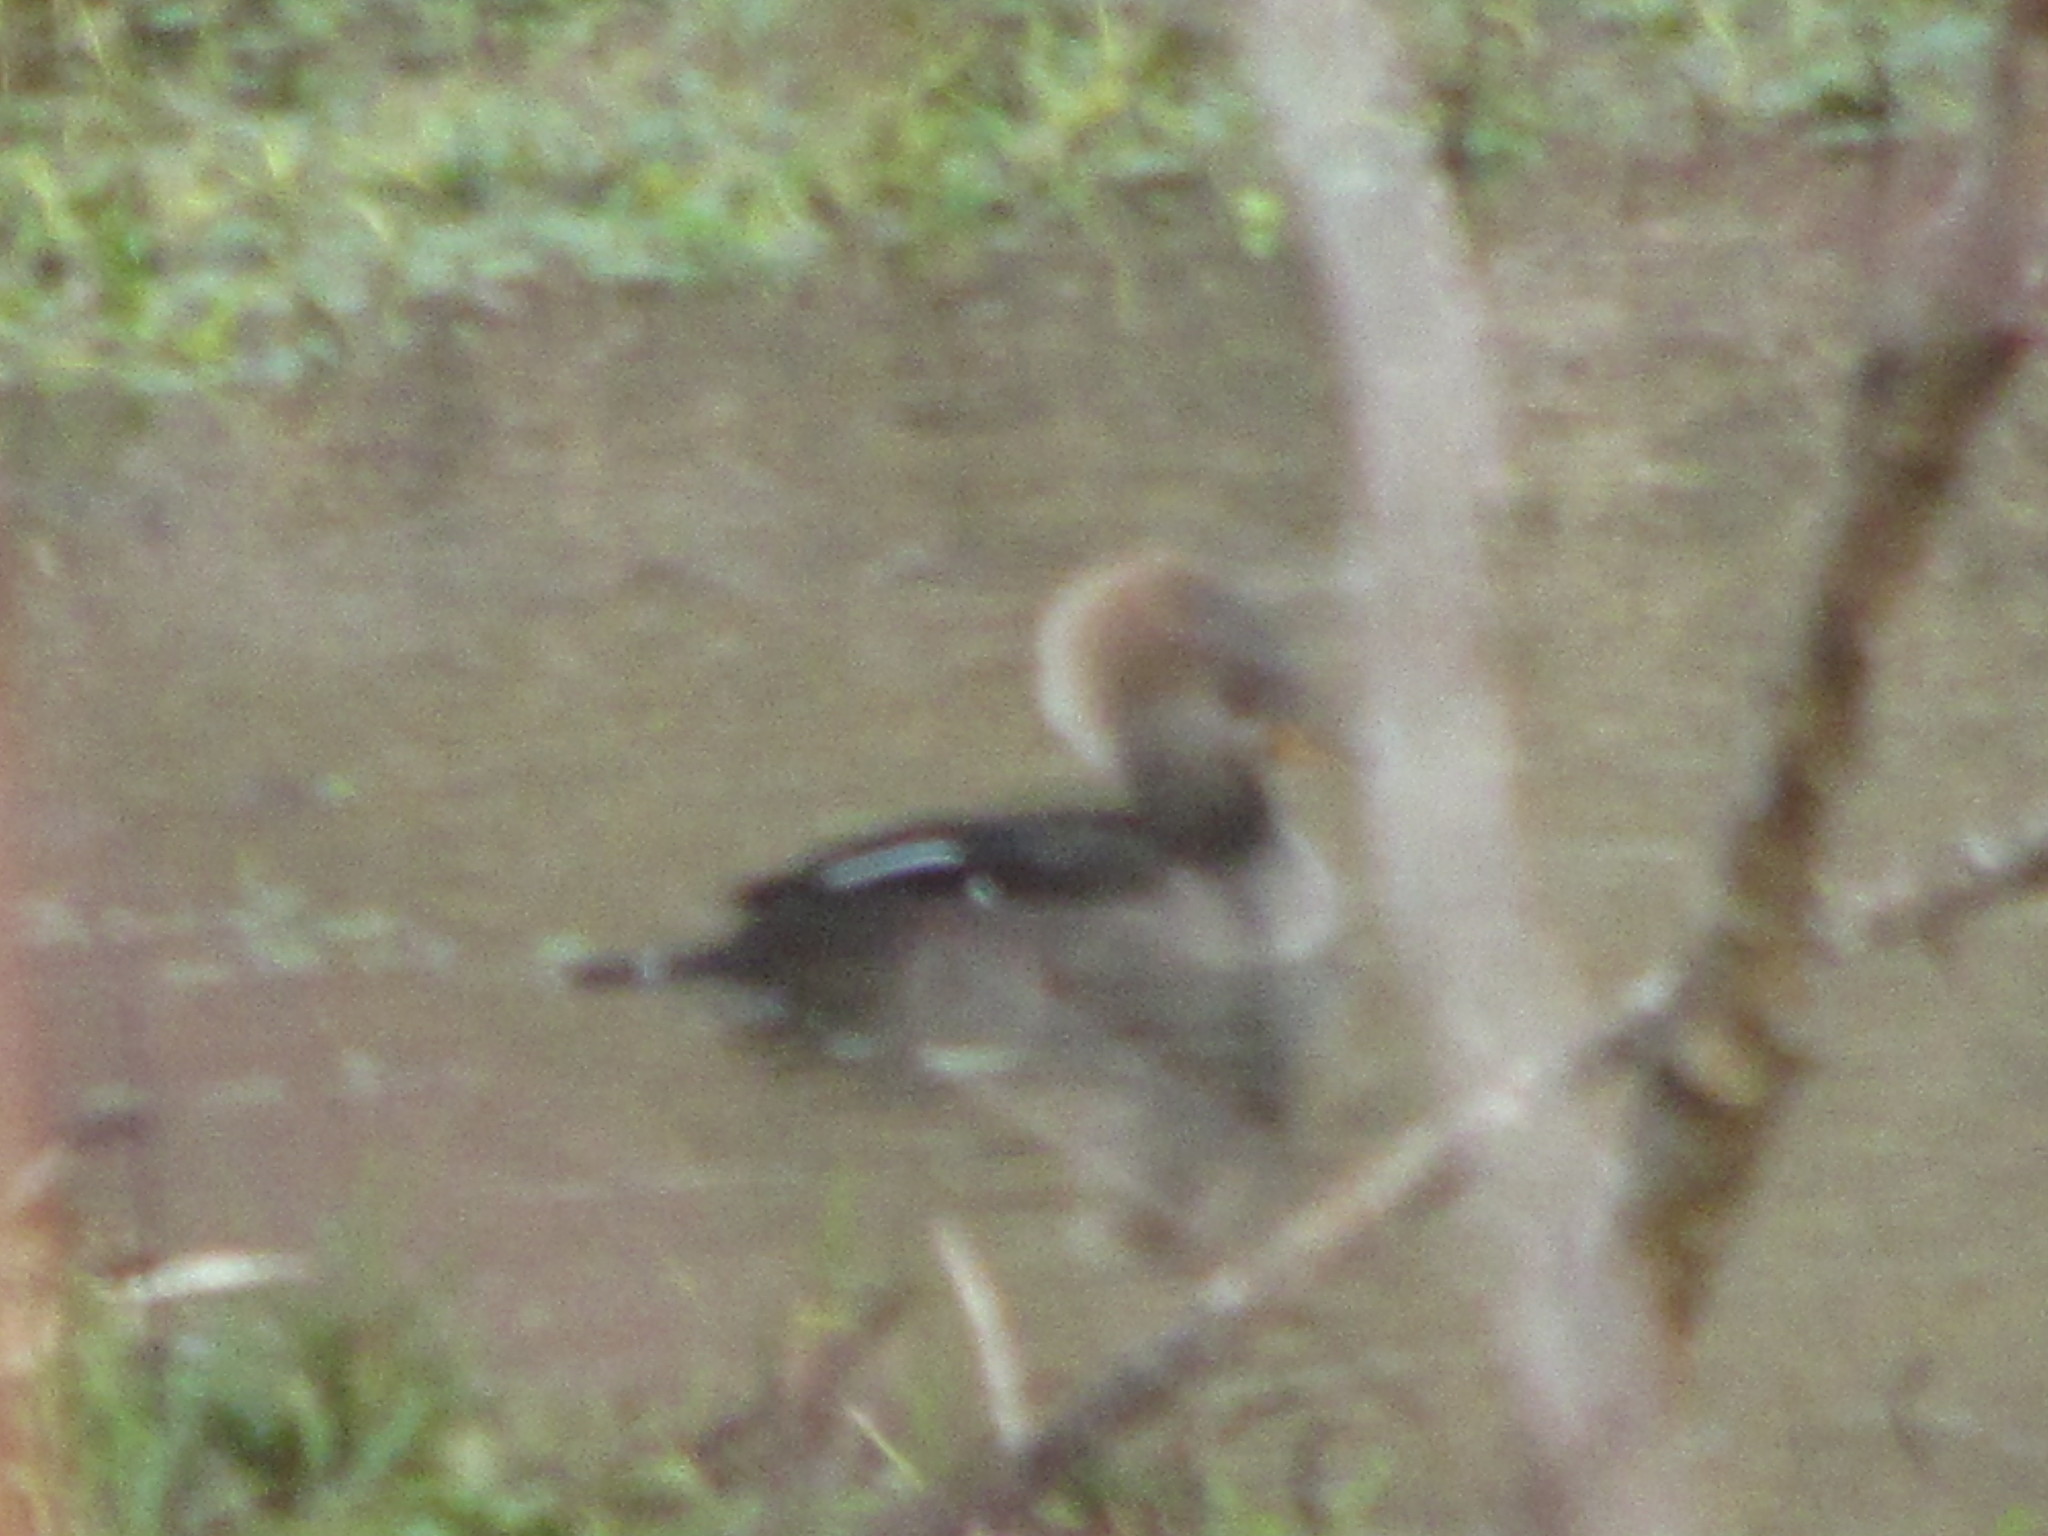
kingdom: Animalia
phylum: Chordata
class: Aves
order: Anseriformes
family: Anatidae
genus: Lophodytes
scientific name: Lophodytes cucullatus
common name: Hooded merganser
